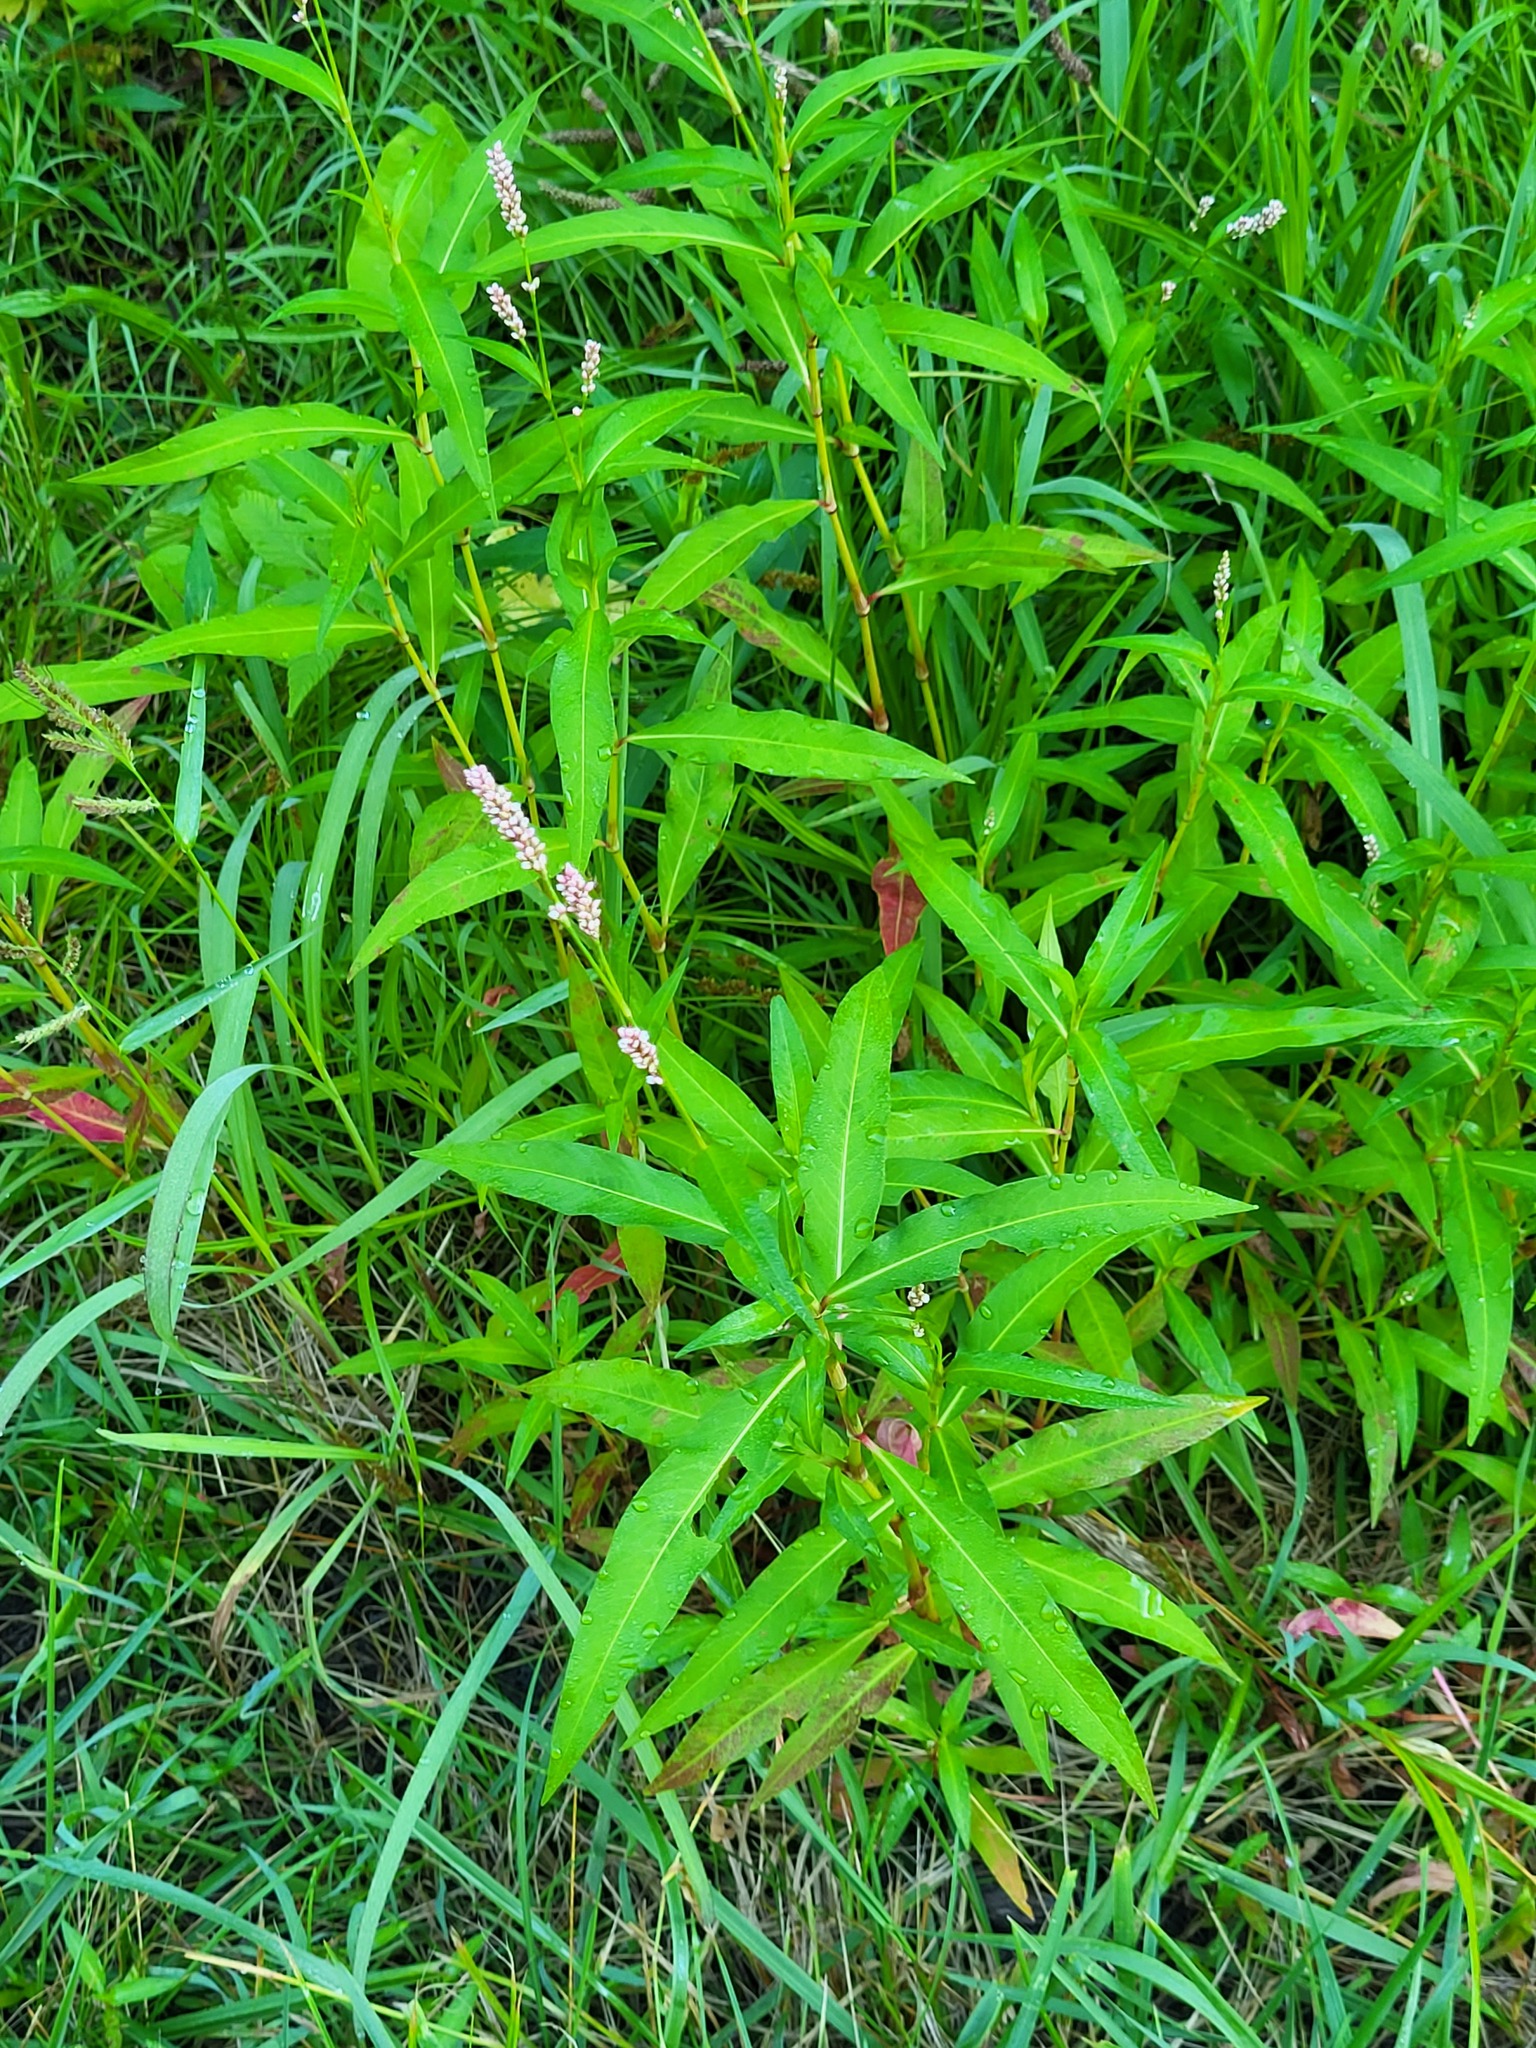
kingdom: Plantae
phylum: Tracheophyta
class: Magnoliopsida
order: Caryophyllales
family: Polygonaceae
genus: Persicaria
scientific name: Persicaria maculosa
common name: Redshank
